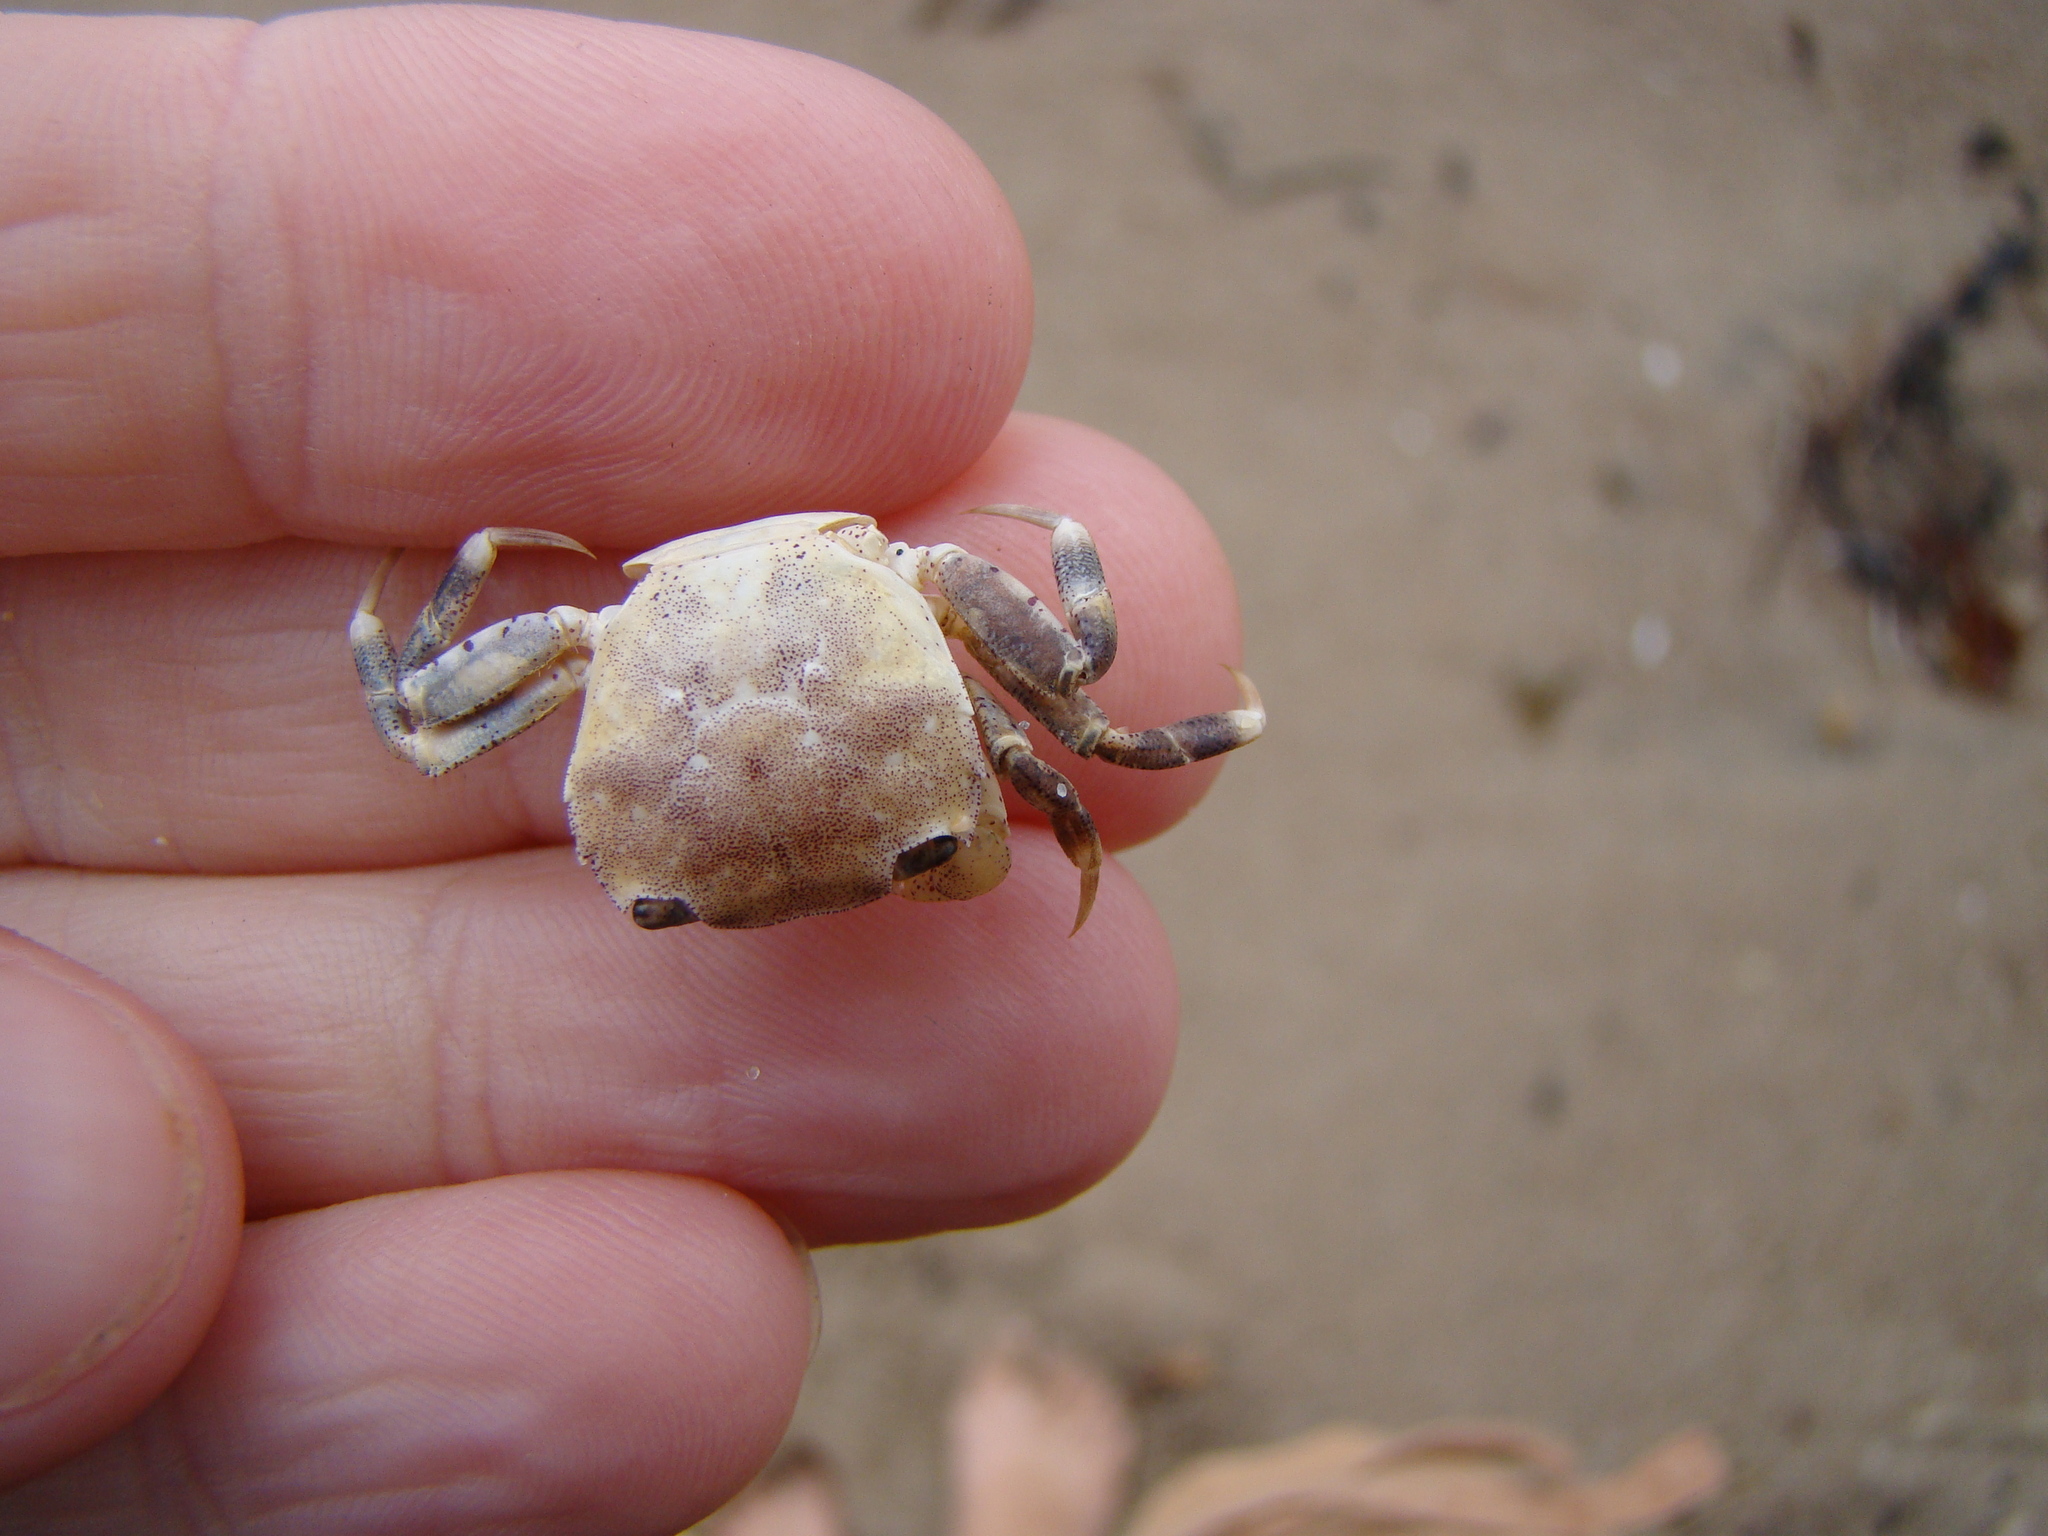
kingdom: Animalia
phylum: Arthropoda
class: Malacostraca
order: Decapoda
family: Varunidae
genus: Hemigrapsus
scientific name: Hemigrapsus crenulatus
